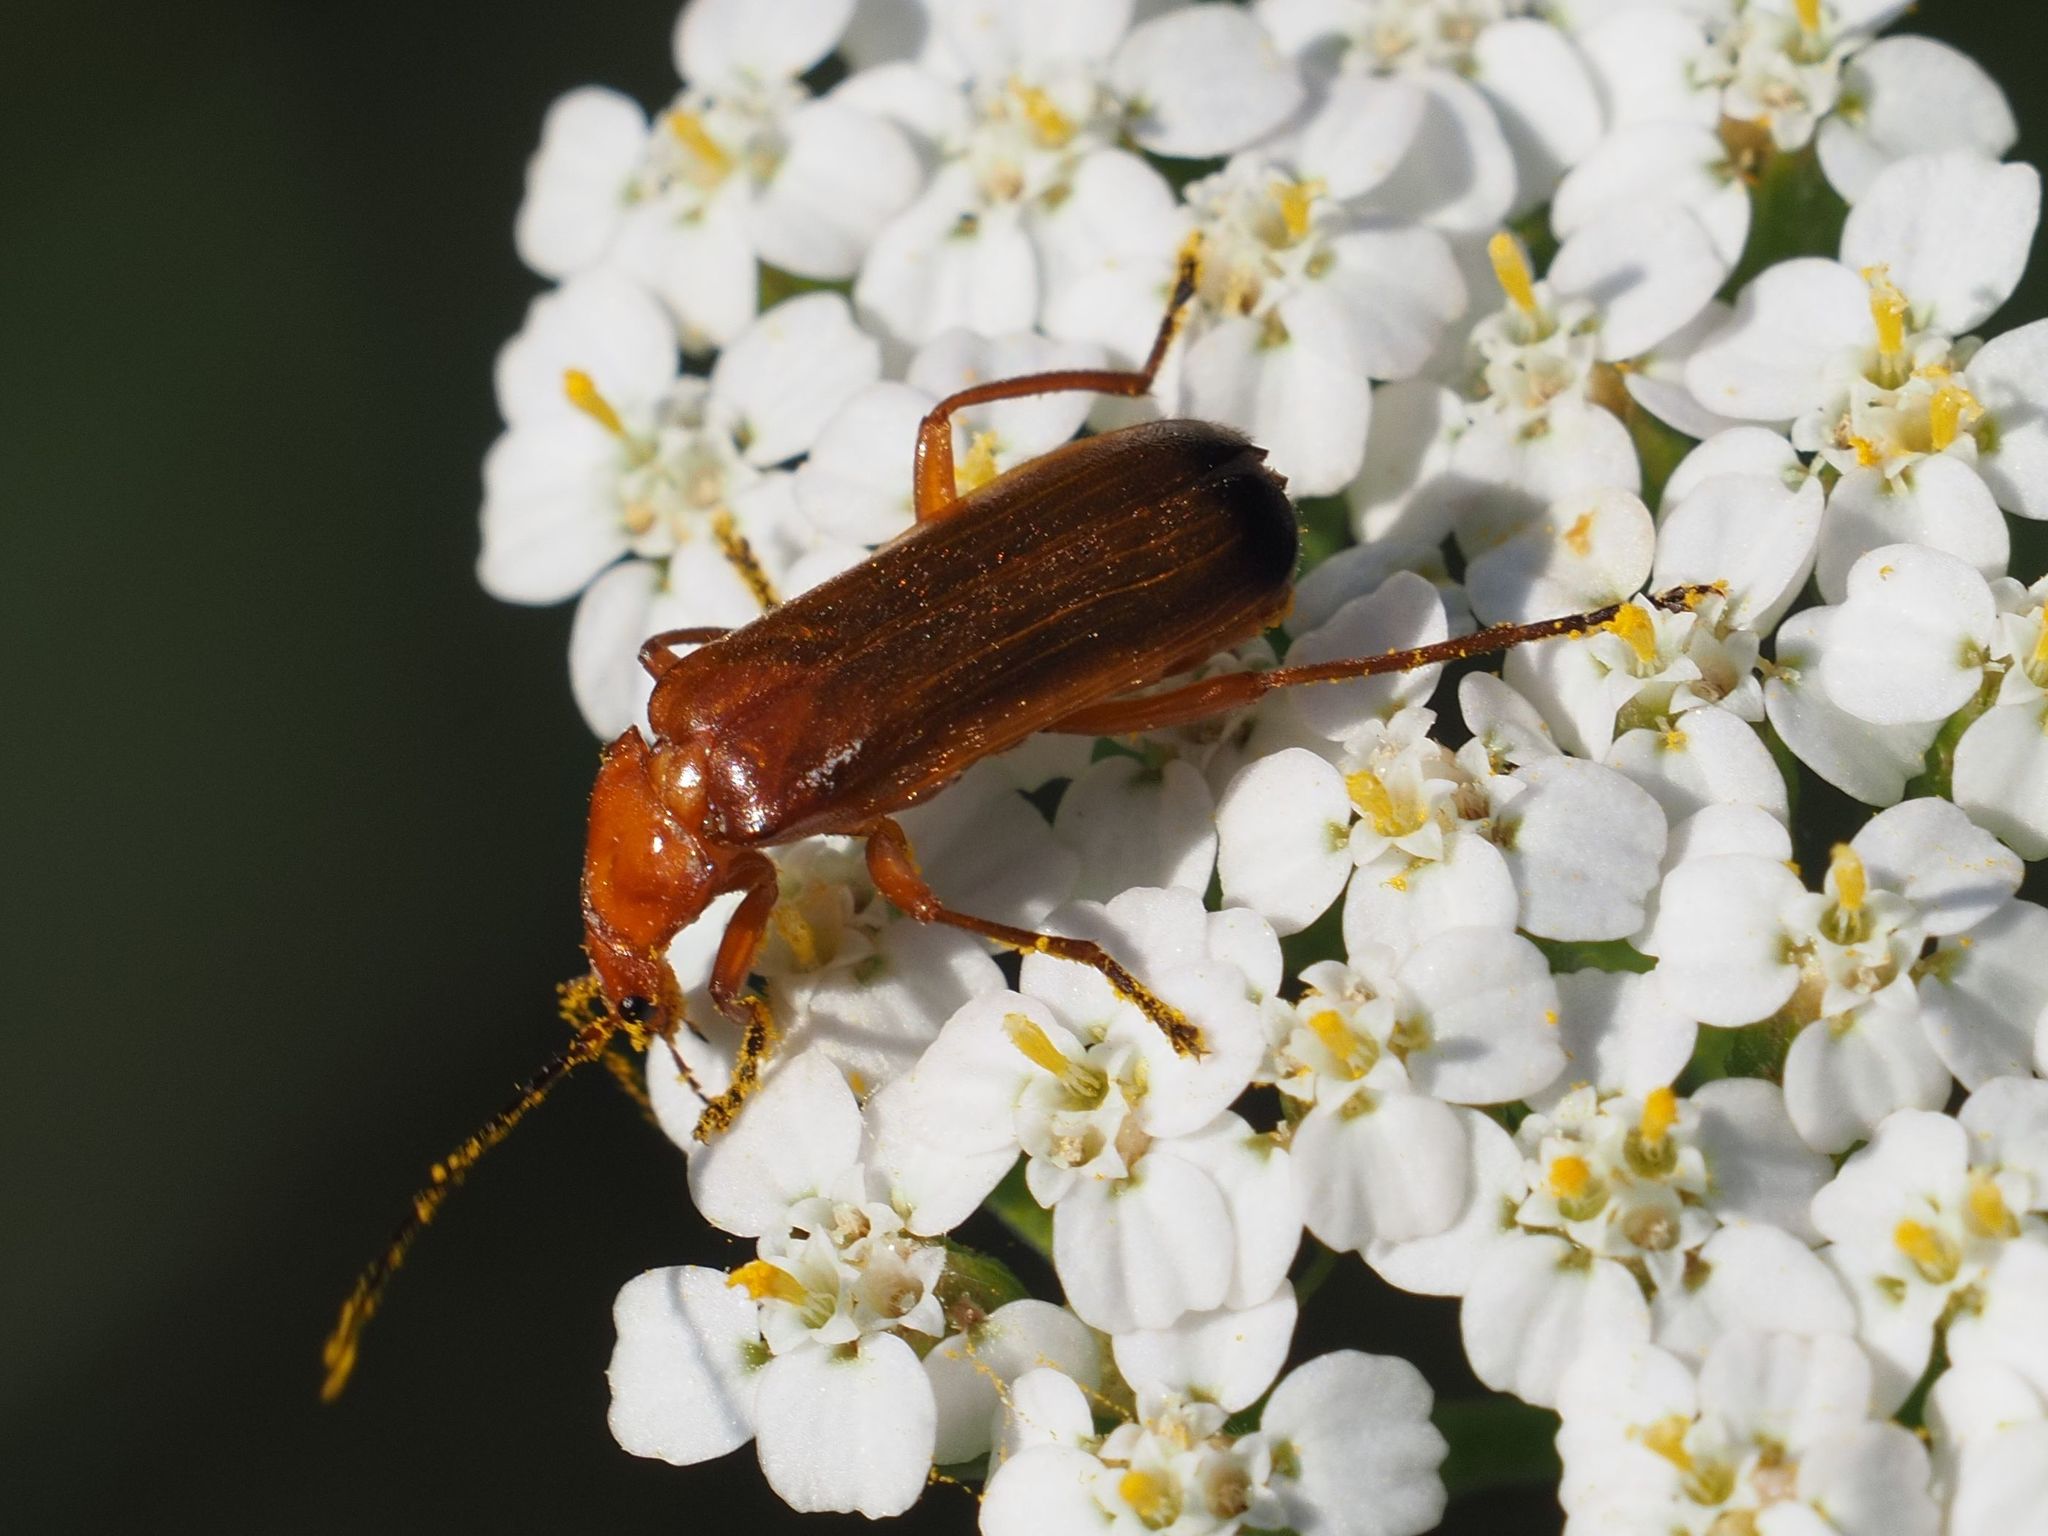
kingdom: Animalia
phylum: Arthropoda
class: Insecta
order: Coleoptera
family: Cantharidae
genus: Rhagonycha
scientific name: Rhagonycha fulva
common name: Common red soldier beetle
